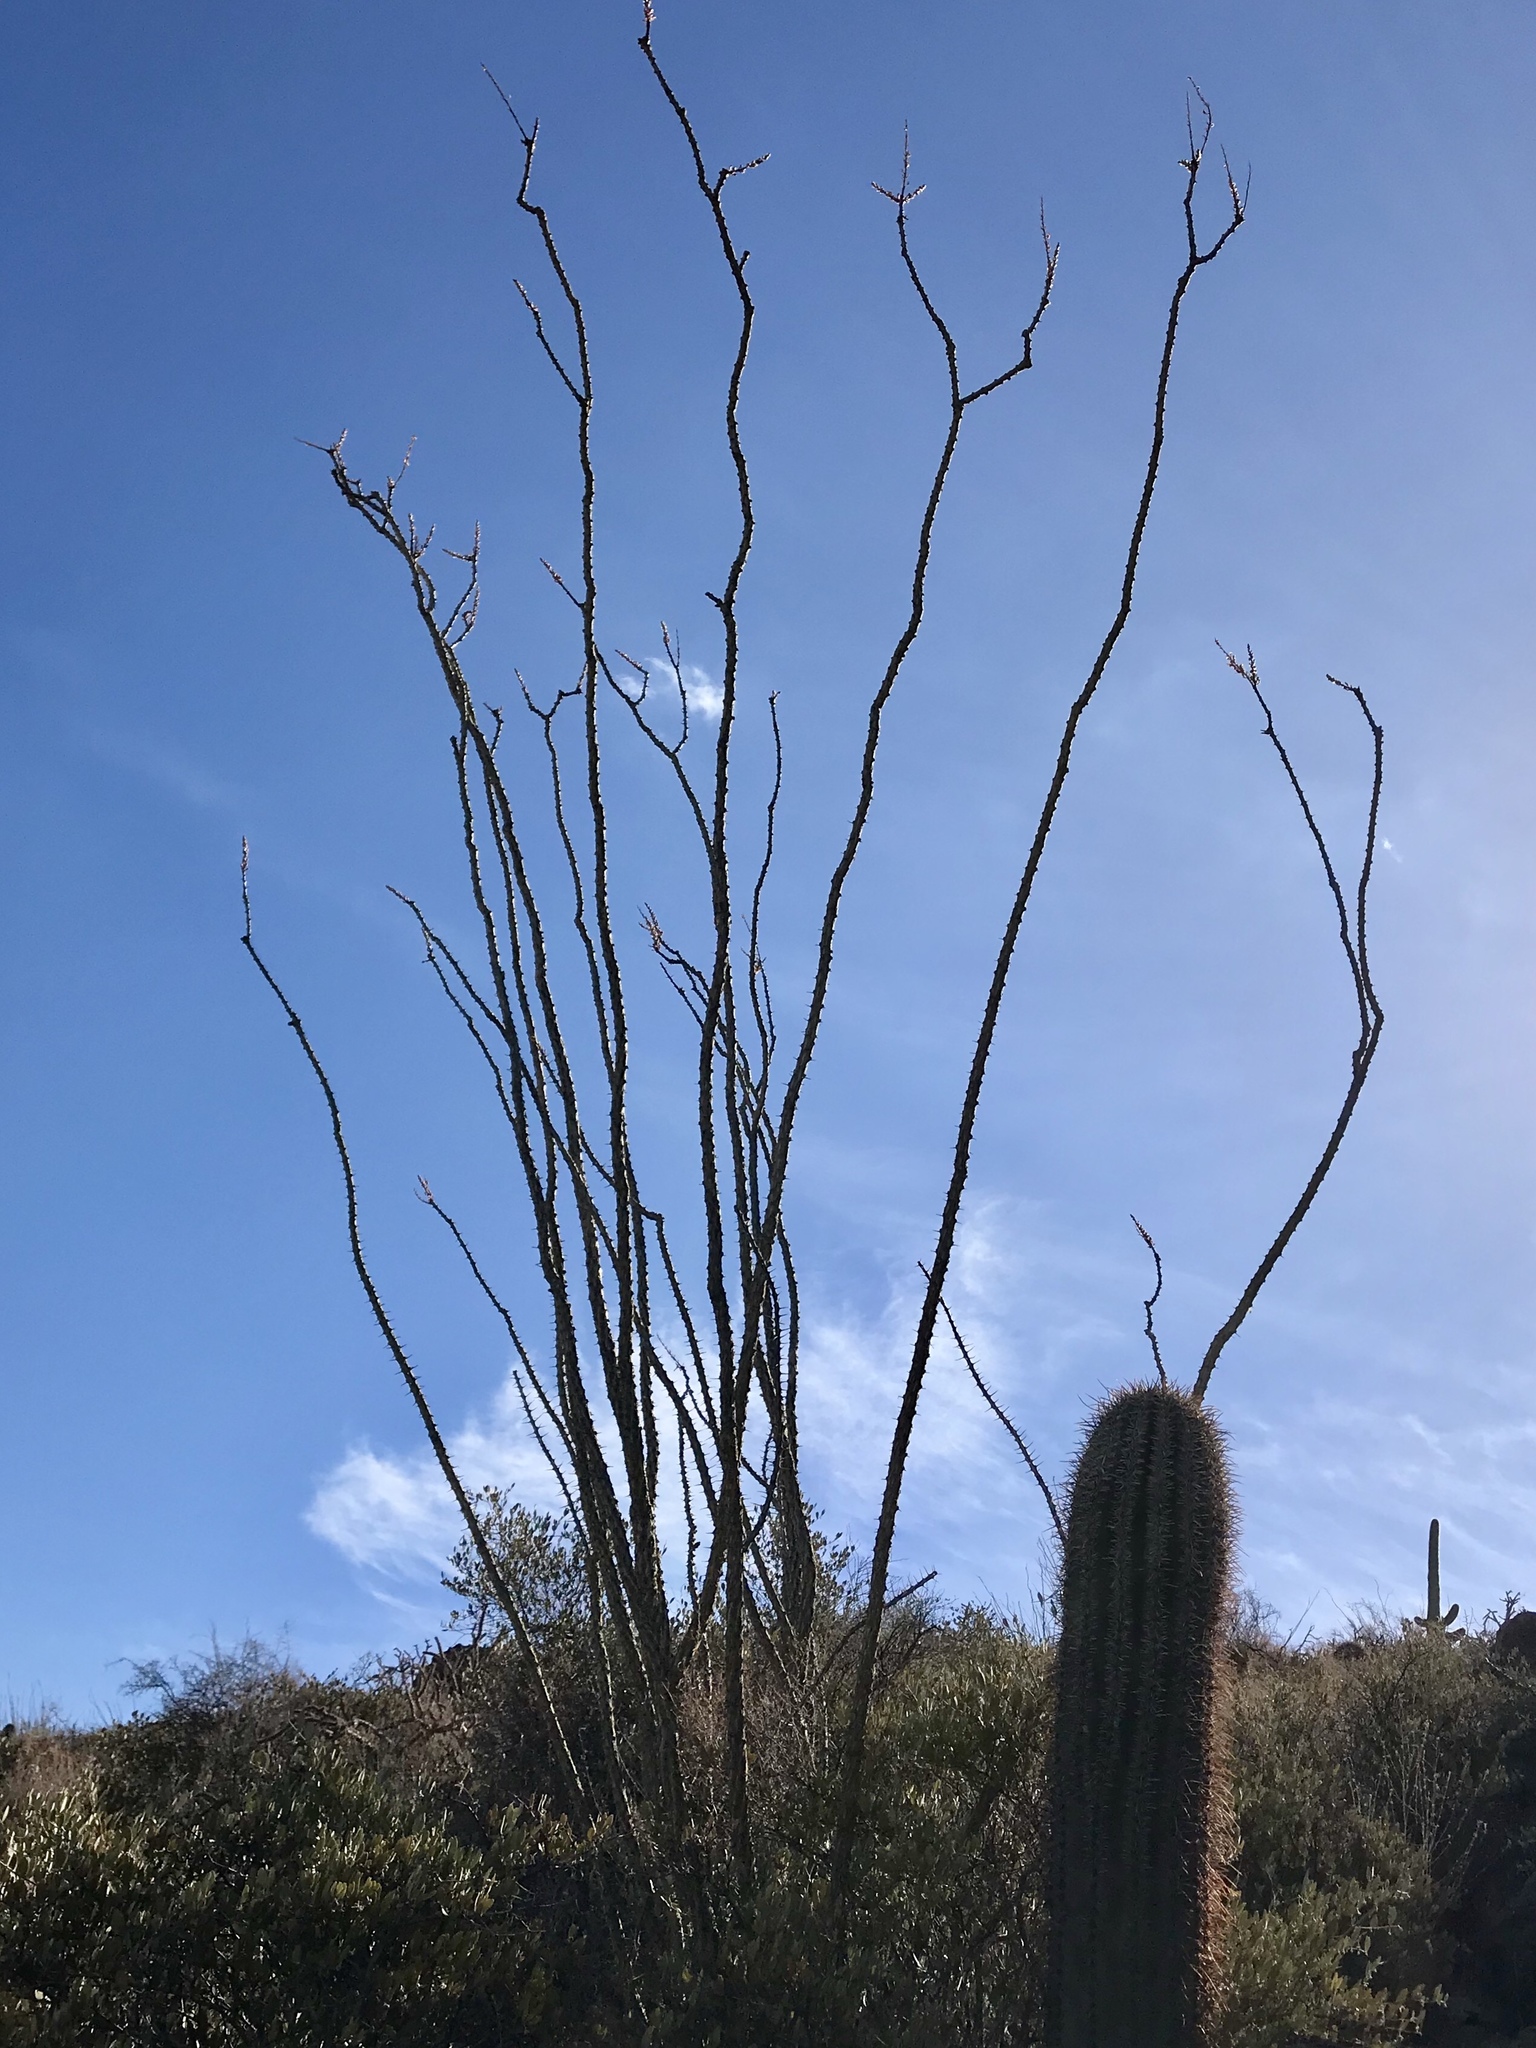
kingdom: Plantae
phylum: Tracheophyta
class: Magnoliopsida
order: Ericales
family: Fouquieriaceae
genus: Fouquieria
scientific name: Fouquieria splendens
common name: Vine-cactus
